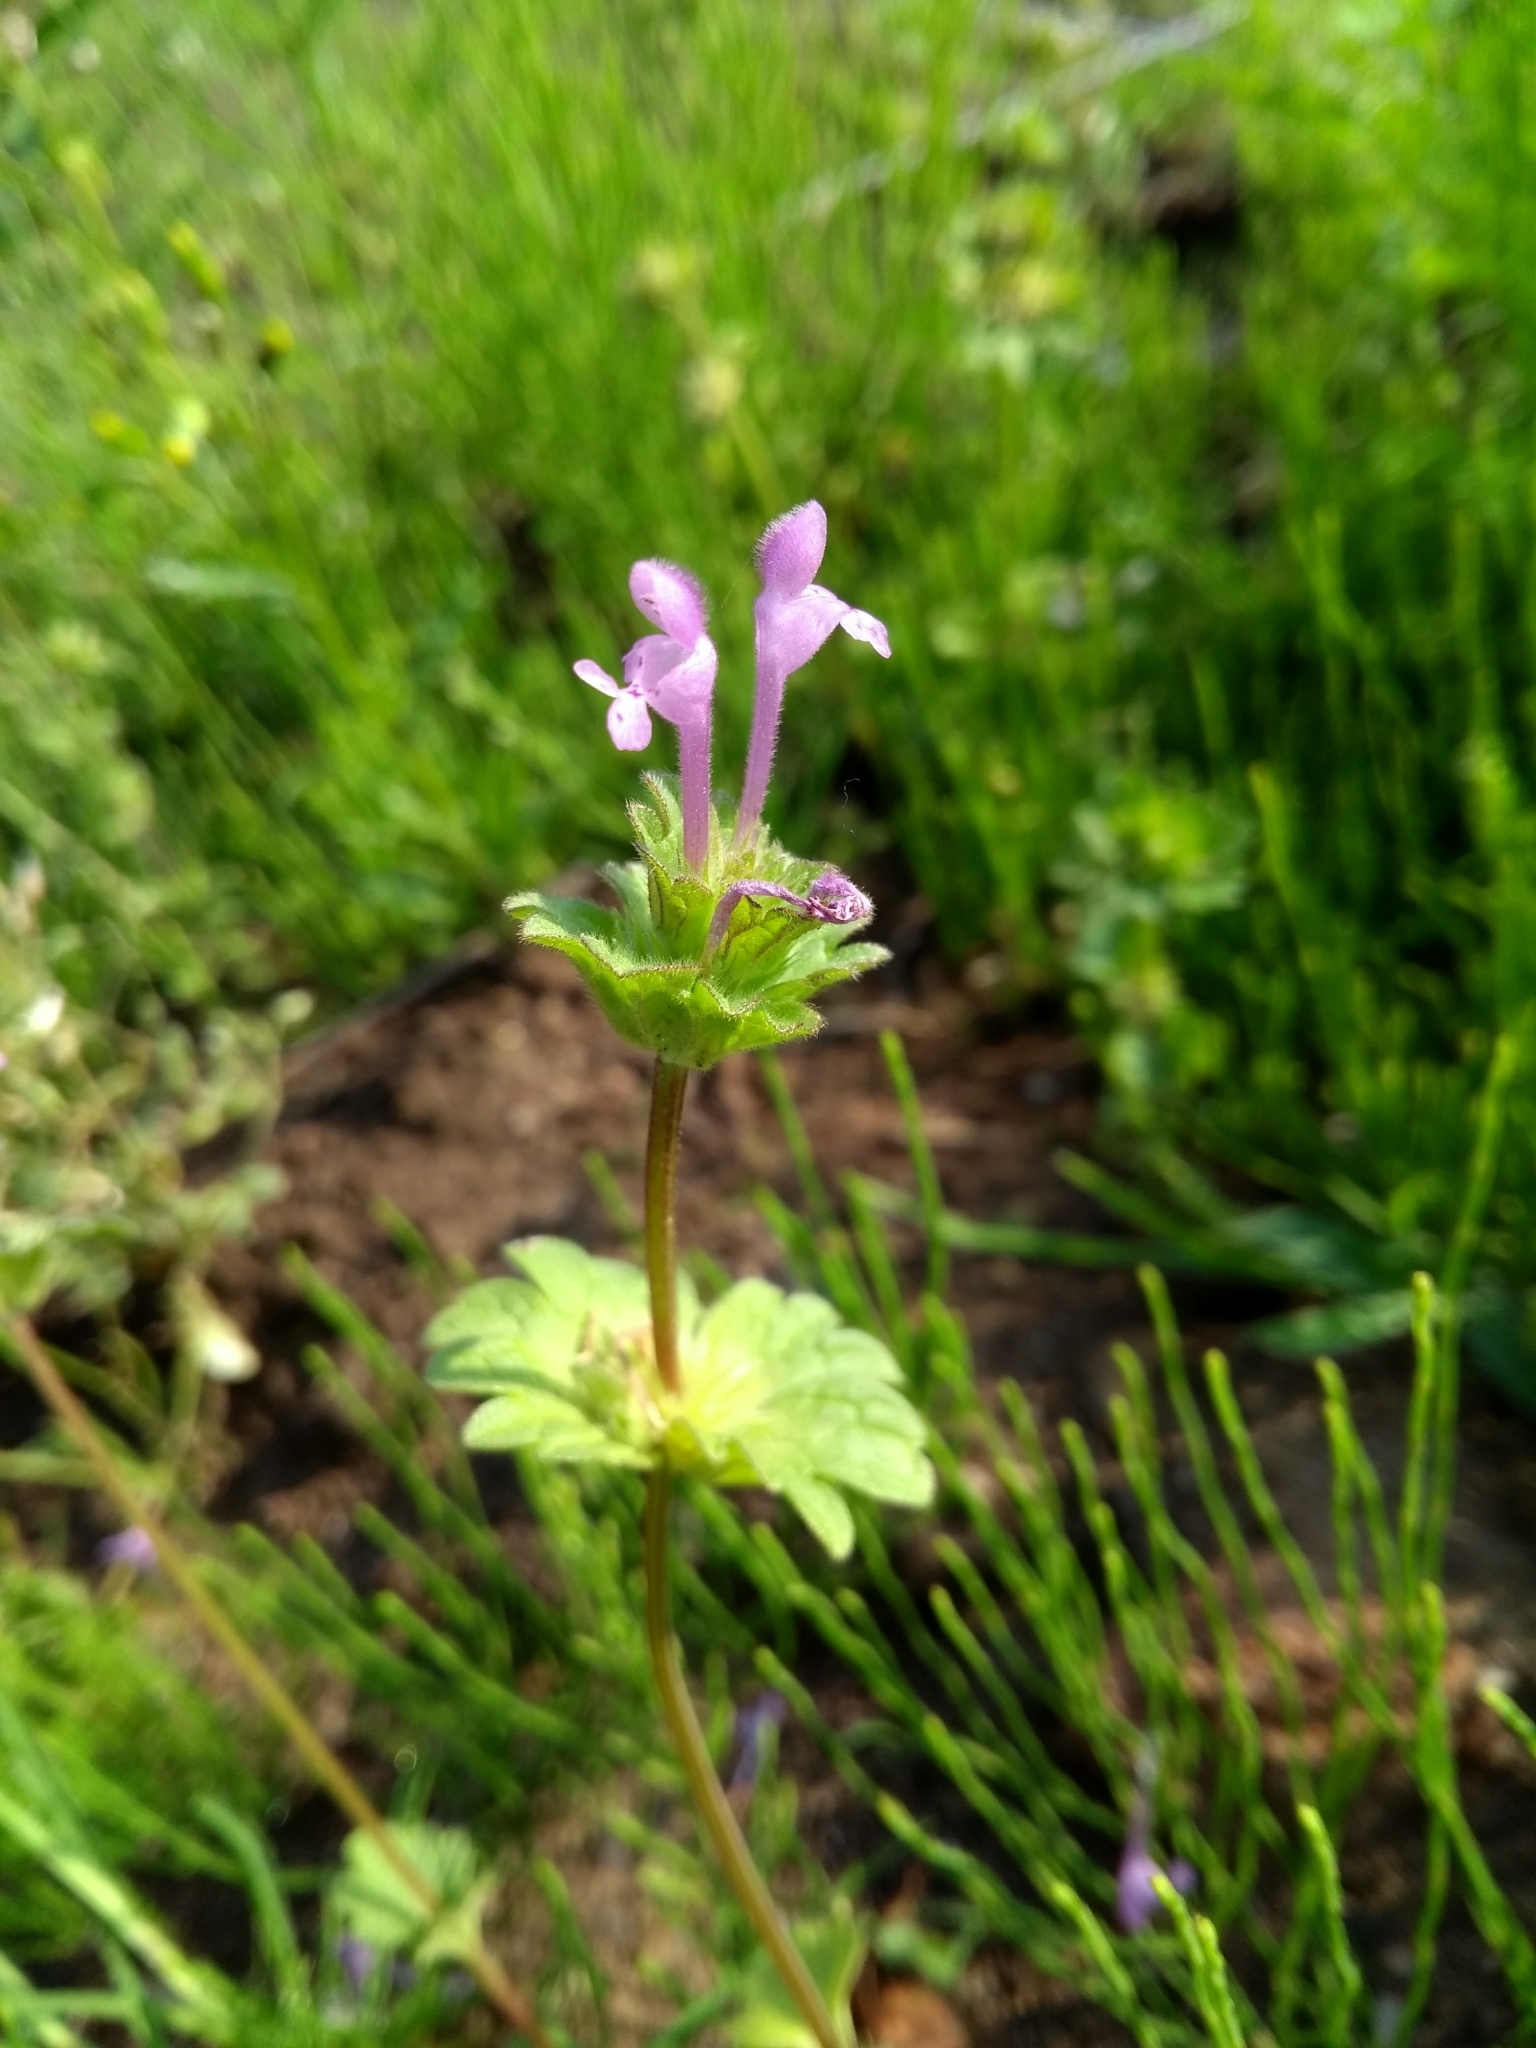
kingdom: Plantae
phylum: Tracheophyta
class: Magnoliopsida
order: Lamiales
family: Lamiaceae
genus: Lamium
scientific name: Lamium amplexicaule
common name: Henbit dead-nettle
